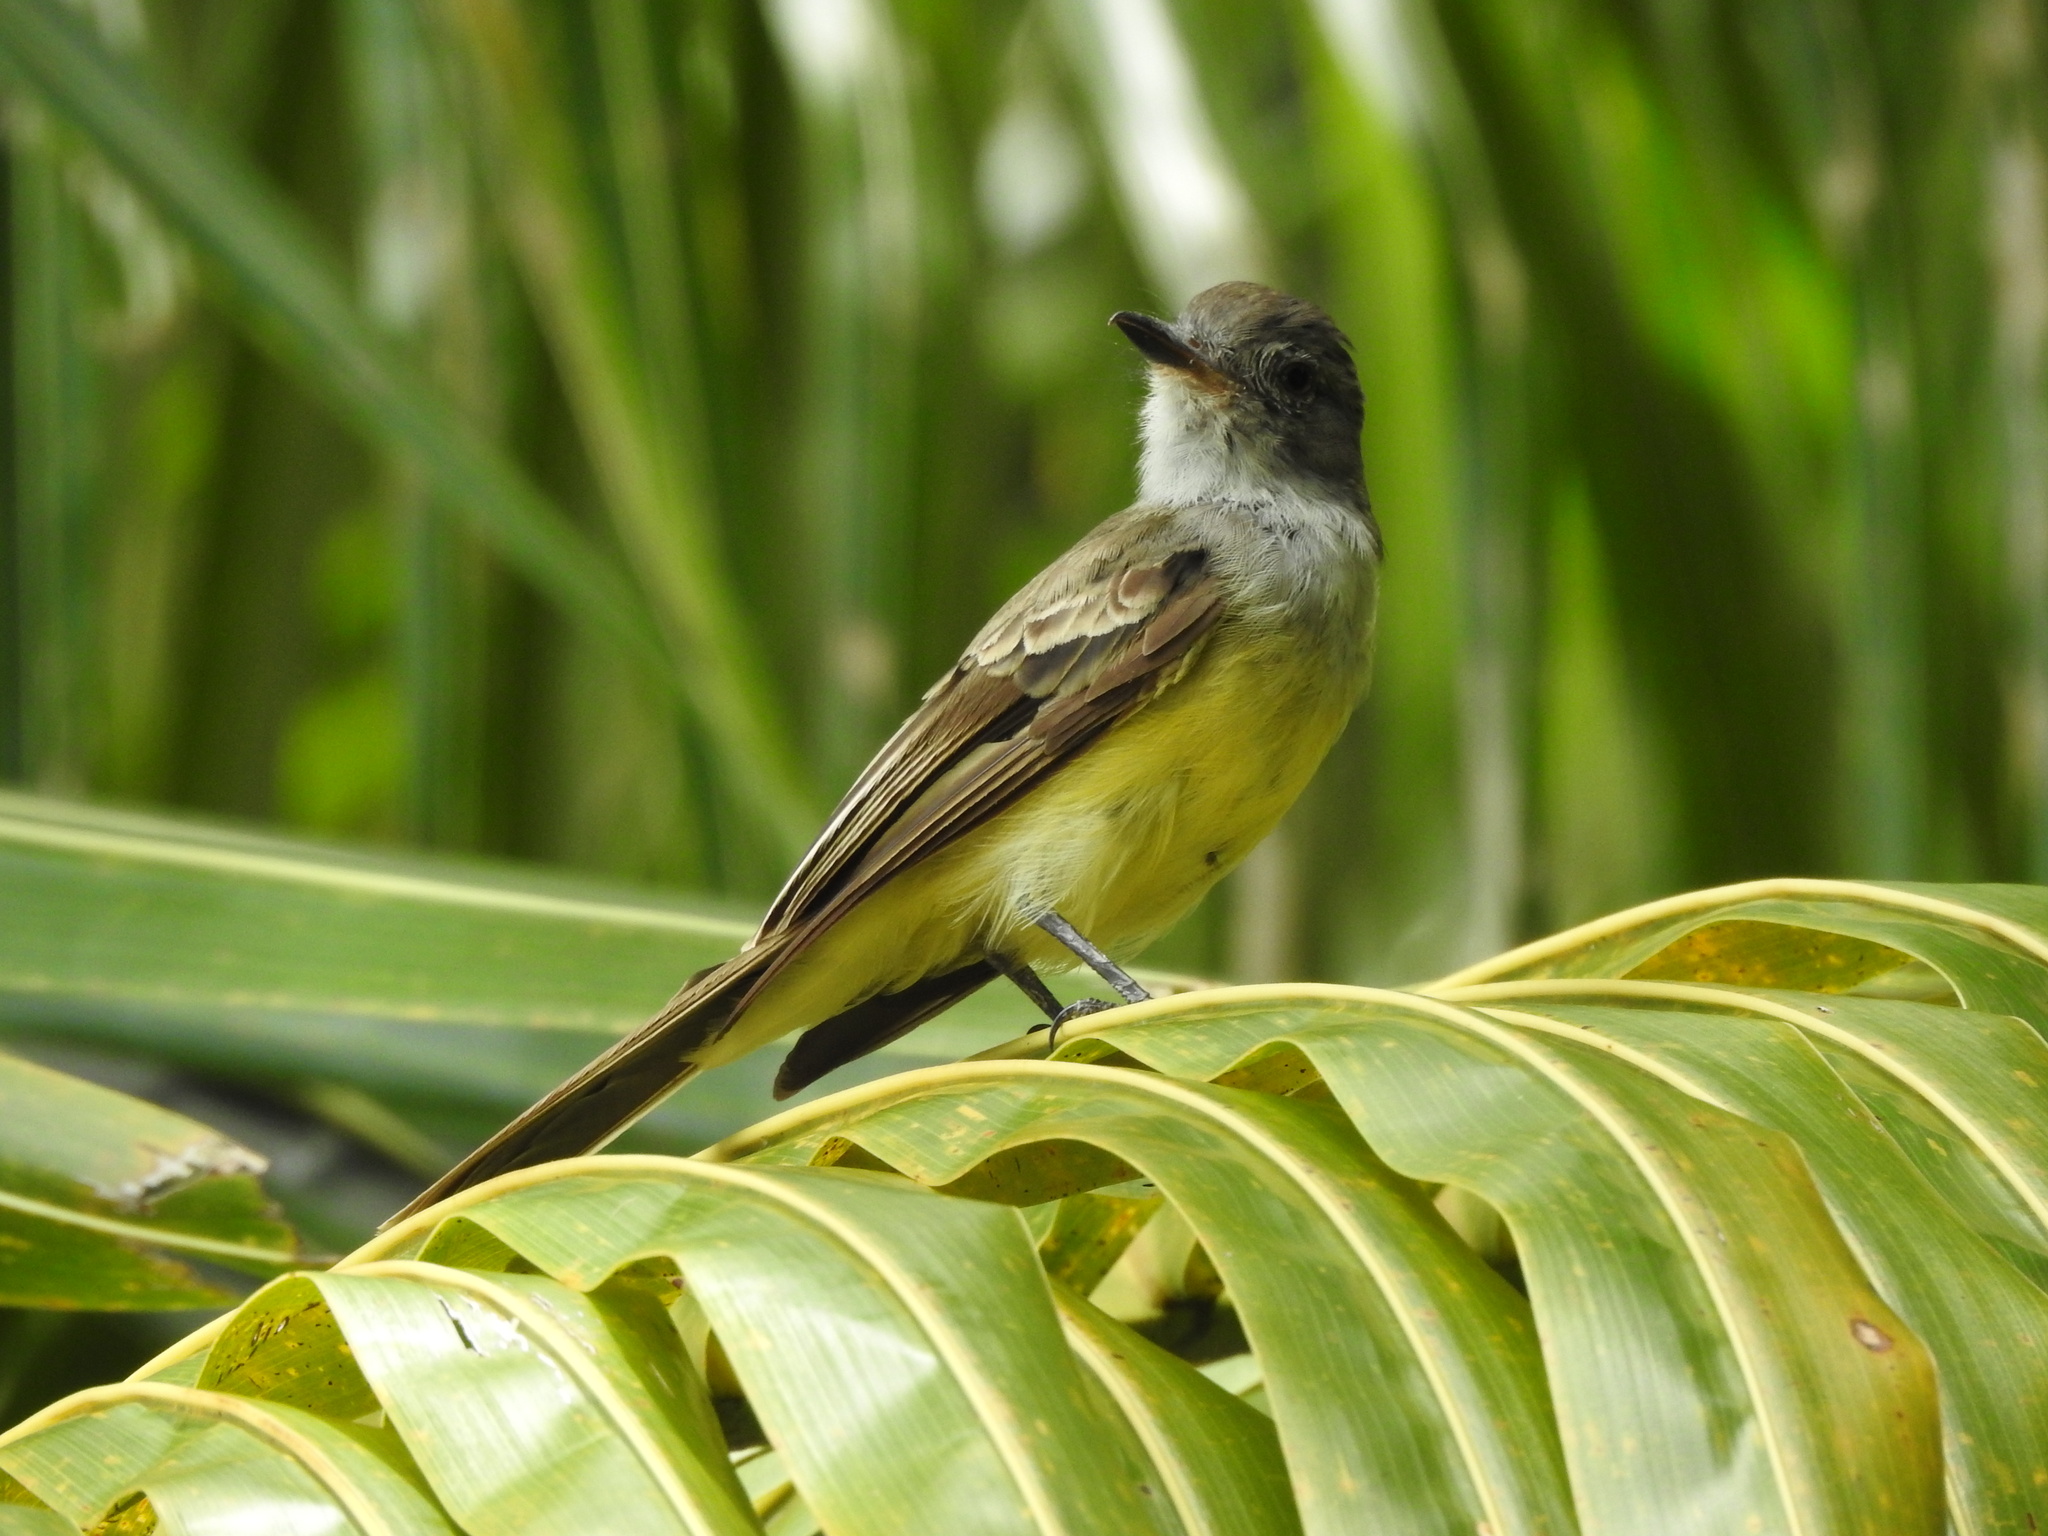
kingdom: Animalia
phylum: Chordata
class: Aves
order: Passeriformes
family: Tyrannidae
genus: Myiarchus
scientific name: Myiarchus panamensis
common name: Panama flycatcher
